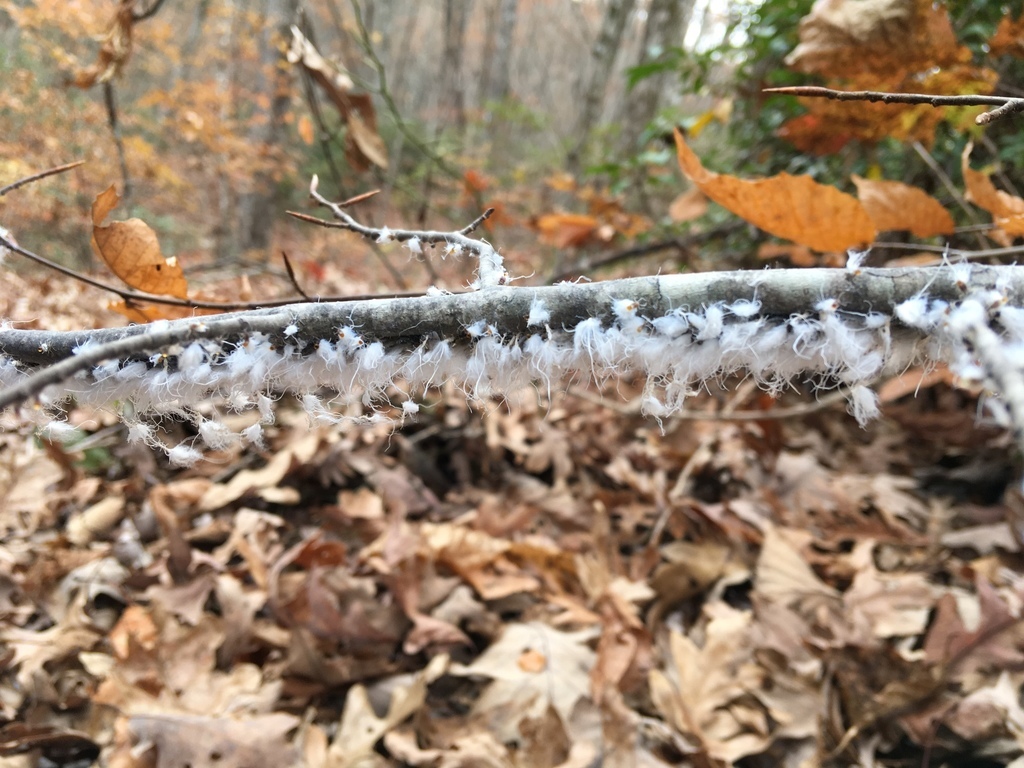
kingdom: Animalia
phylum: Arthropoda
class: Insecta
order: Hemiptera
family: Aphididae
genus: Grylloprociphilus
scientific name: Grylloprociphilus imbricator
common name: Beech blight aphid
